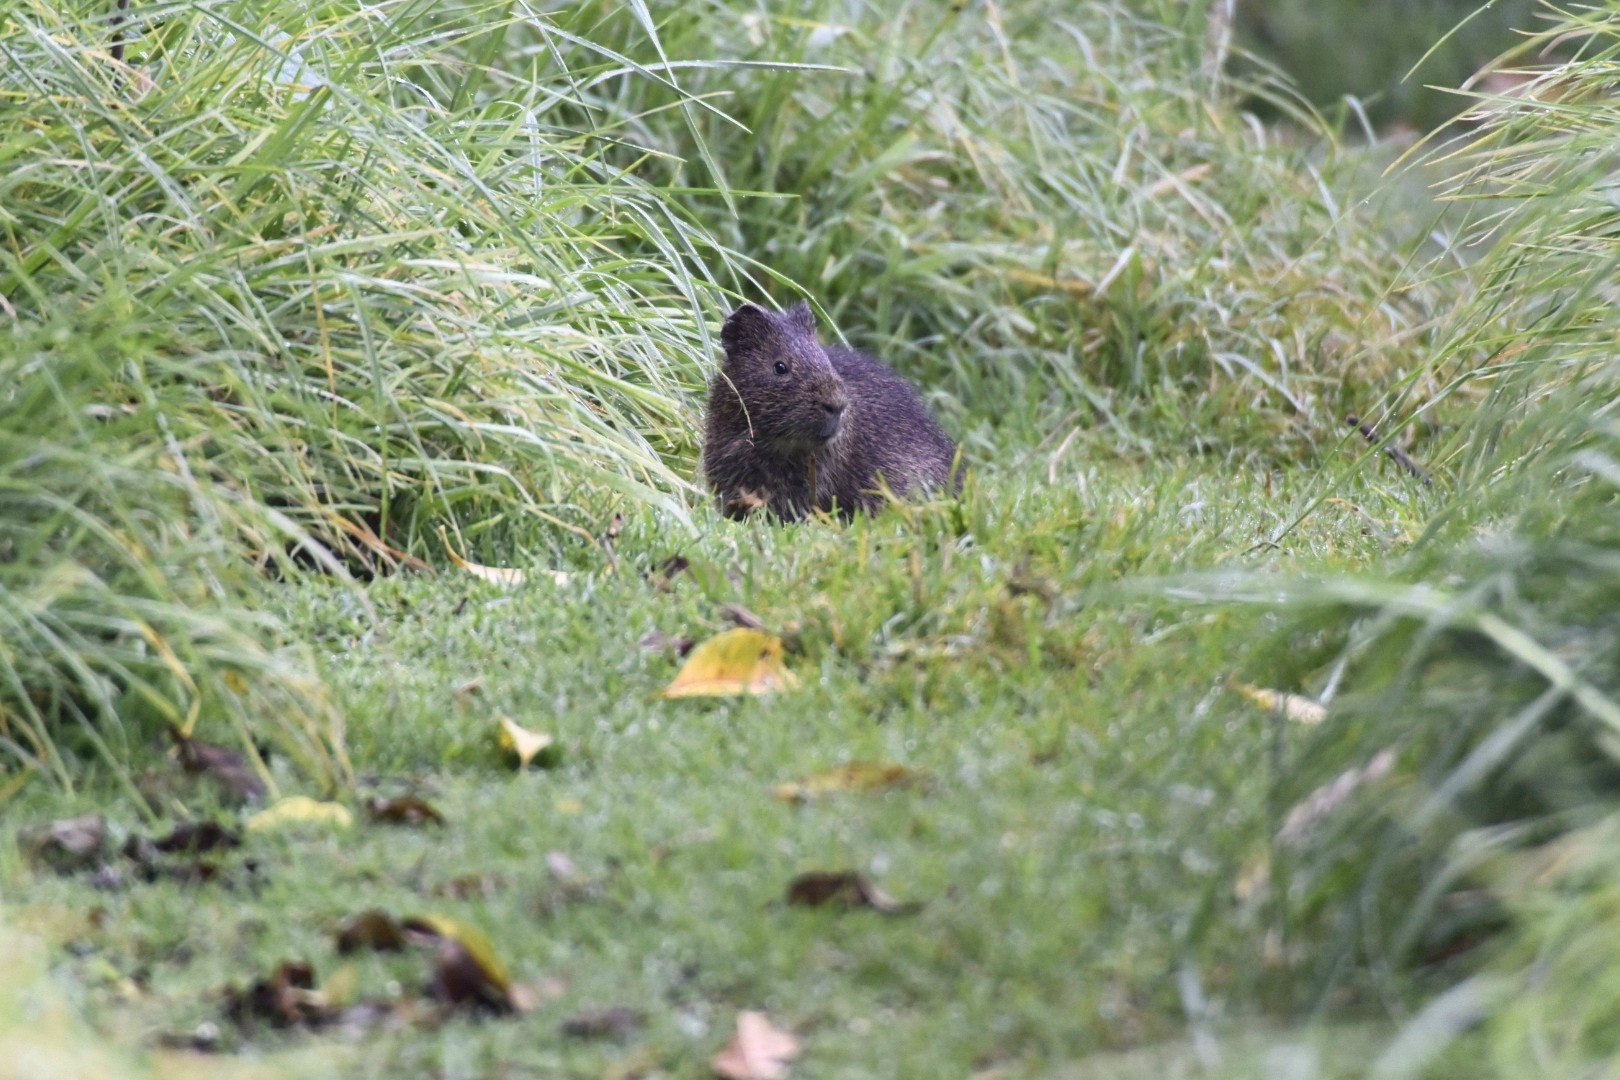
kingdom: Animalia
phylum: Chordata
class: Mammalia
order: Rodentia
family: Caviidae
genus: Cavia
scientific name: Cavia aperea
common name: Brazilian guinea pig
